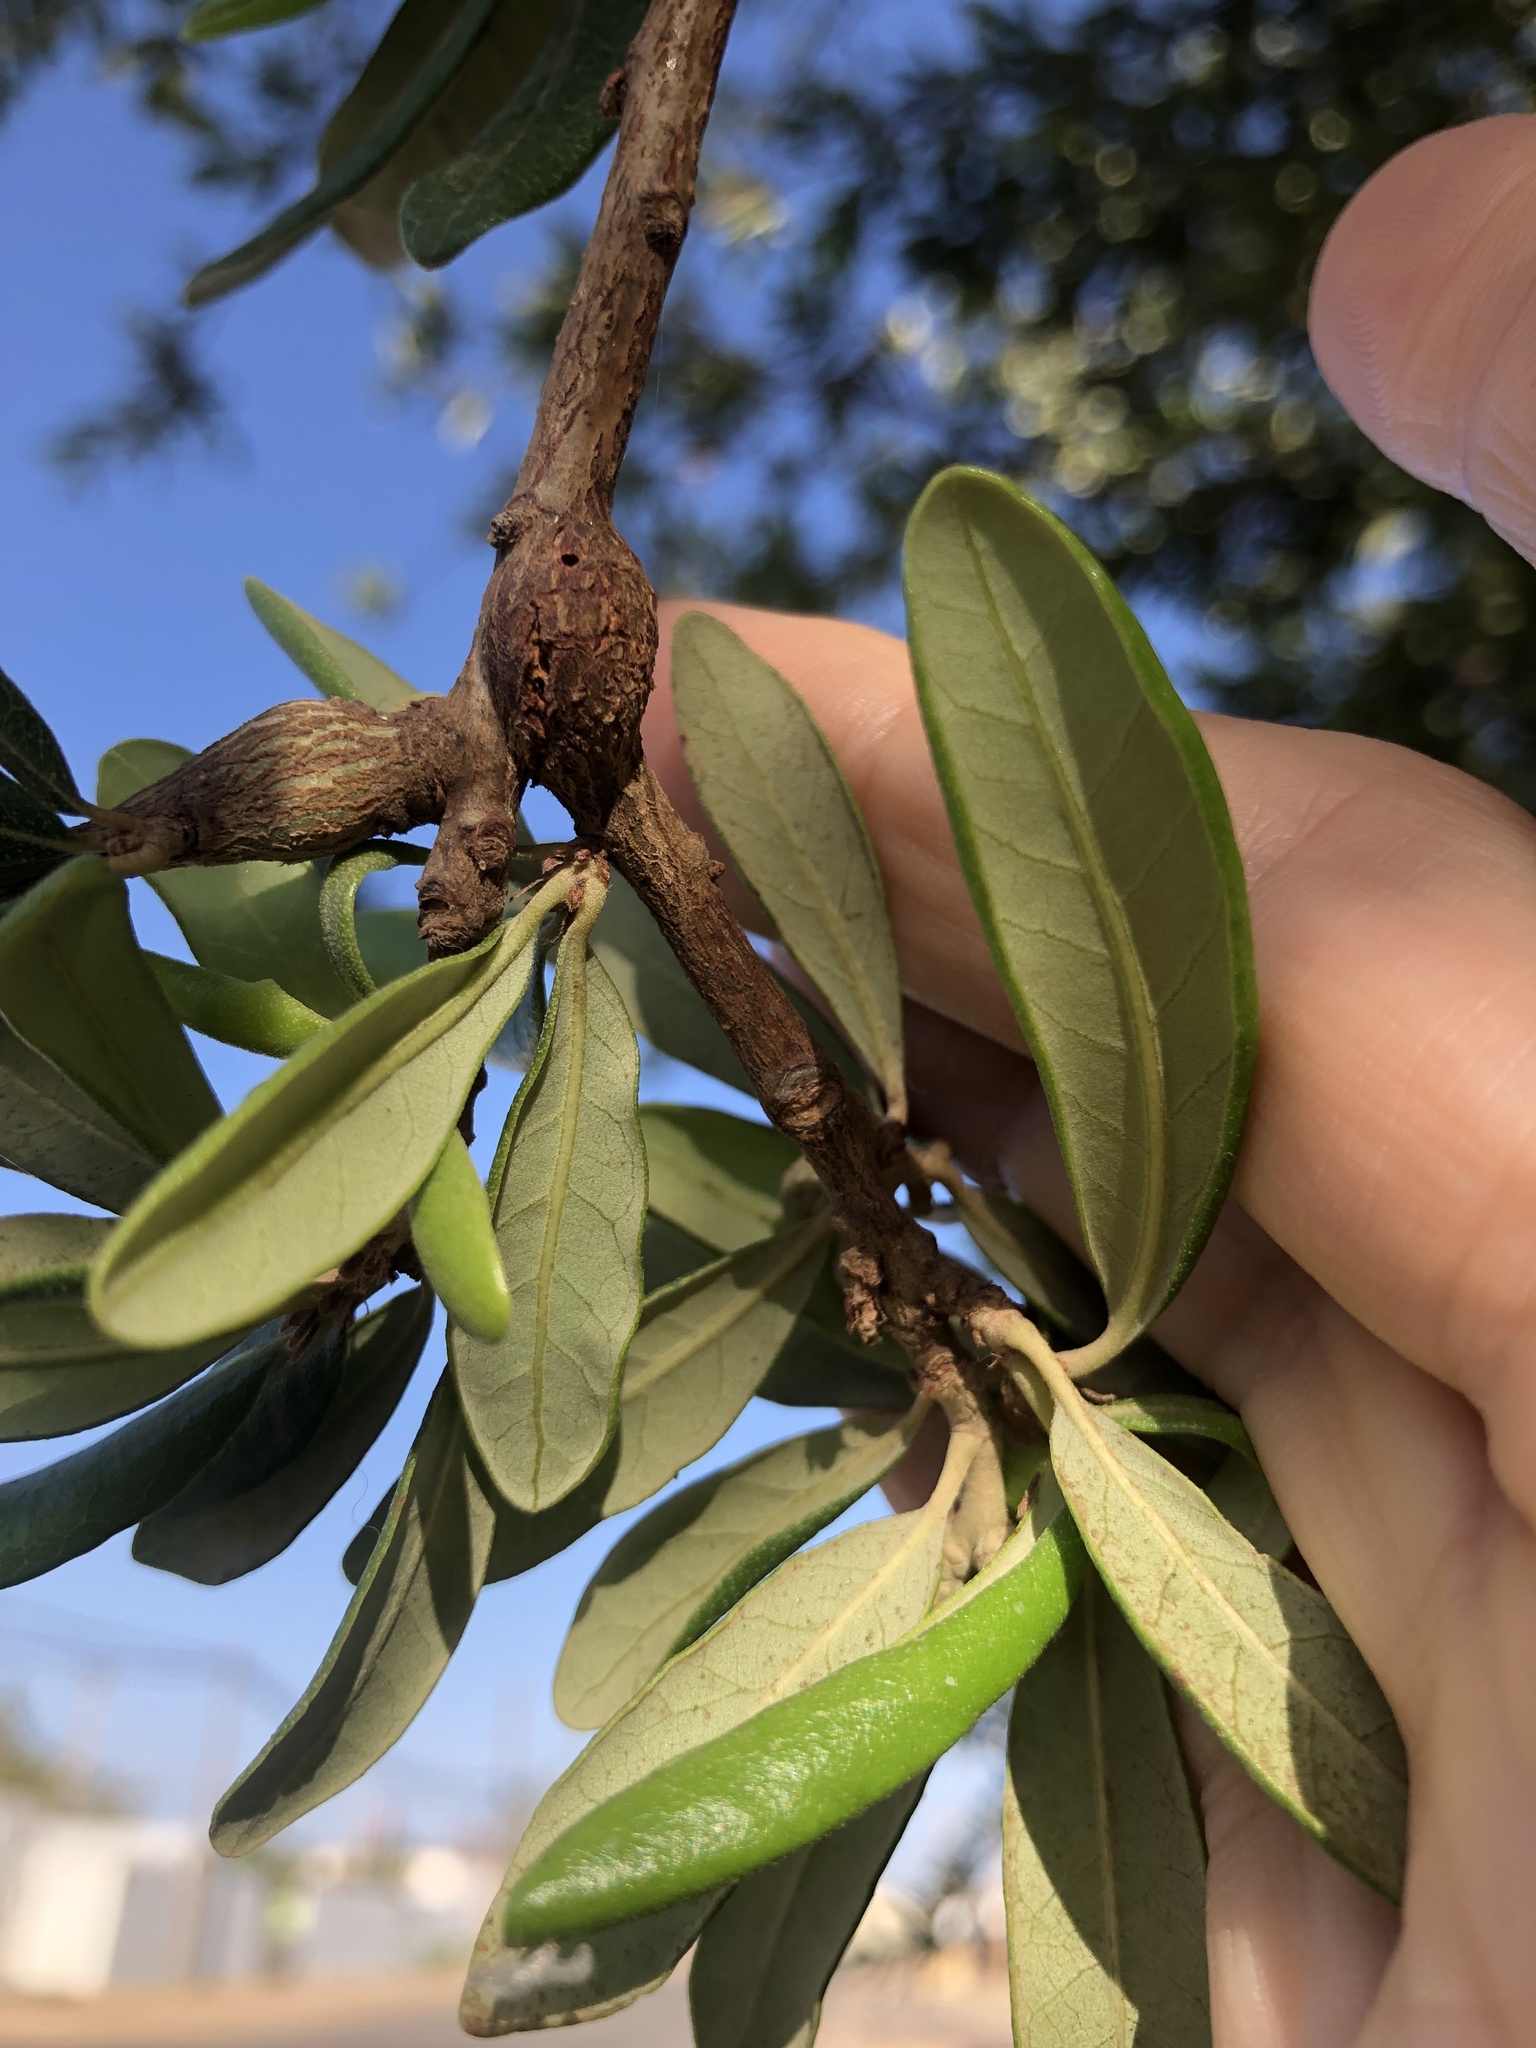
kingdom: Animalia
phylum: Arthropoda
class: Insecta
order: Hymenoptera
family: Cynipidae
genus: Callirhytis
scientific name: Callirhytis
